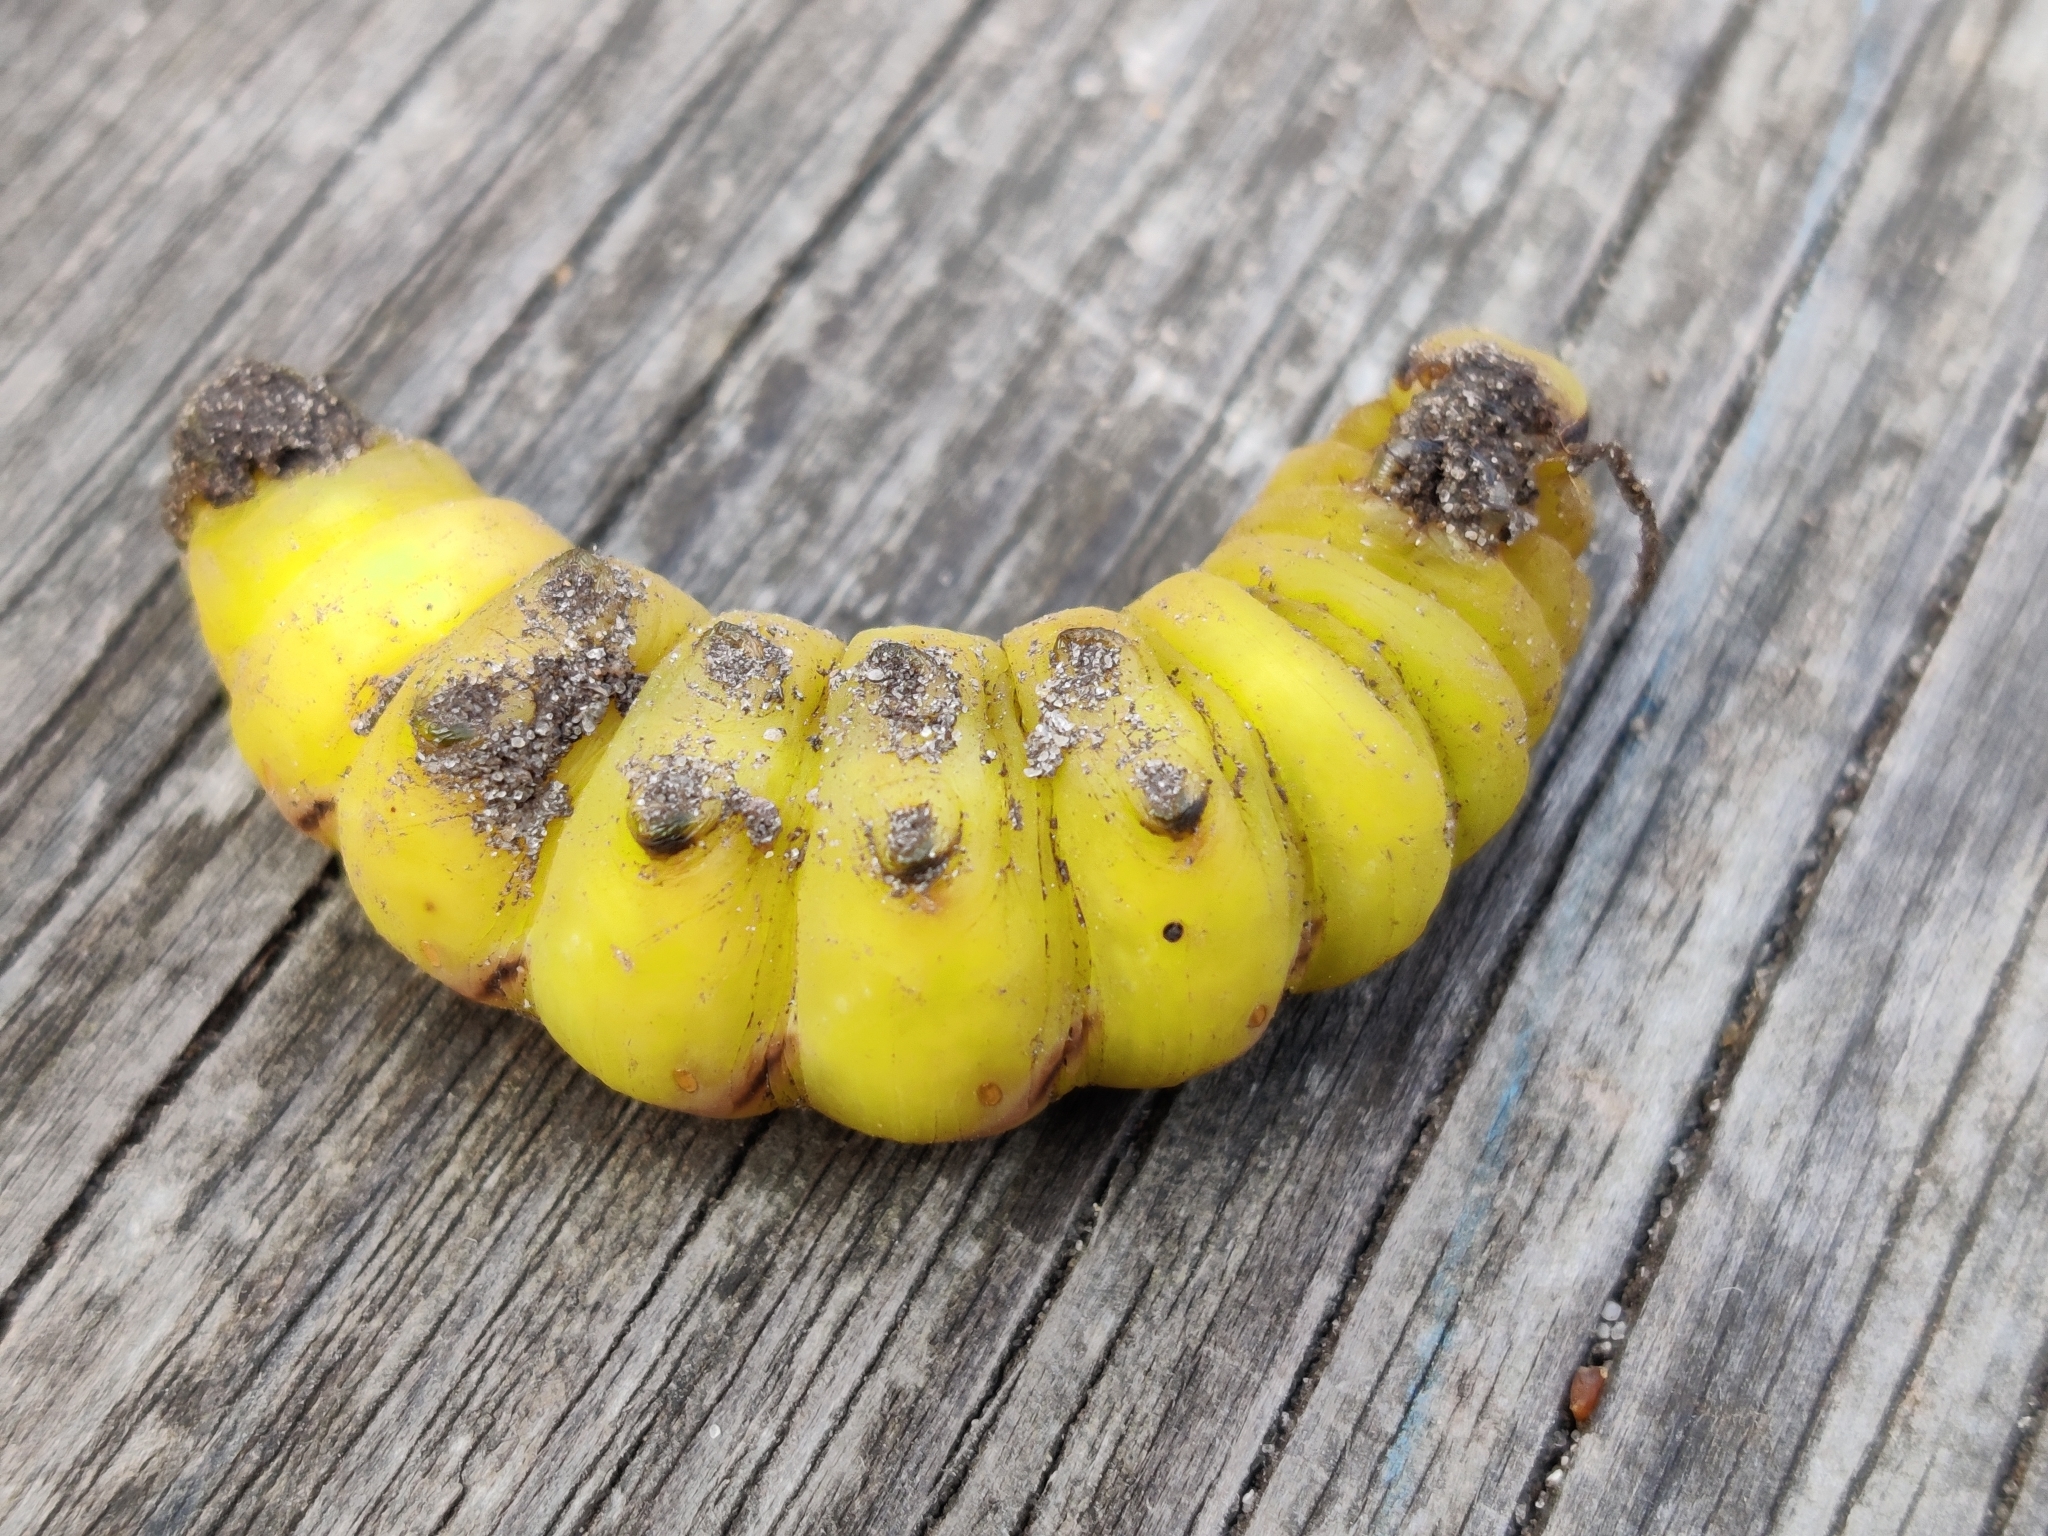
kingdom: Animalia
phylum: Arthropoda
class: Insecta
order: Lepidoptera
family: Sphingidae
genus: Sphinx
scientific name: Sphinx ligustri
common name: Privet hawk-moth
